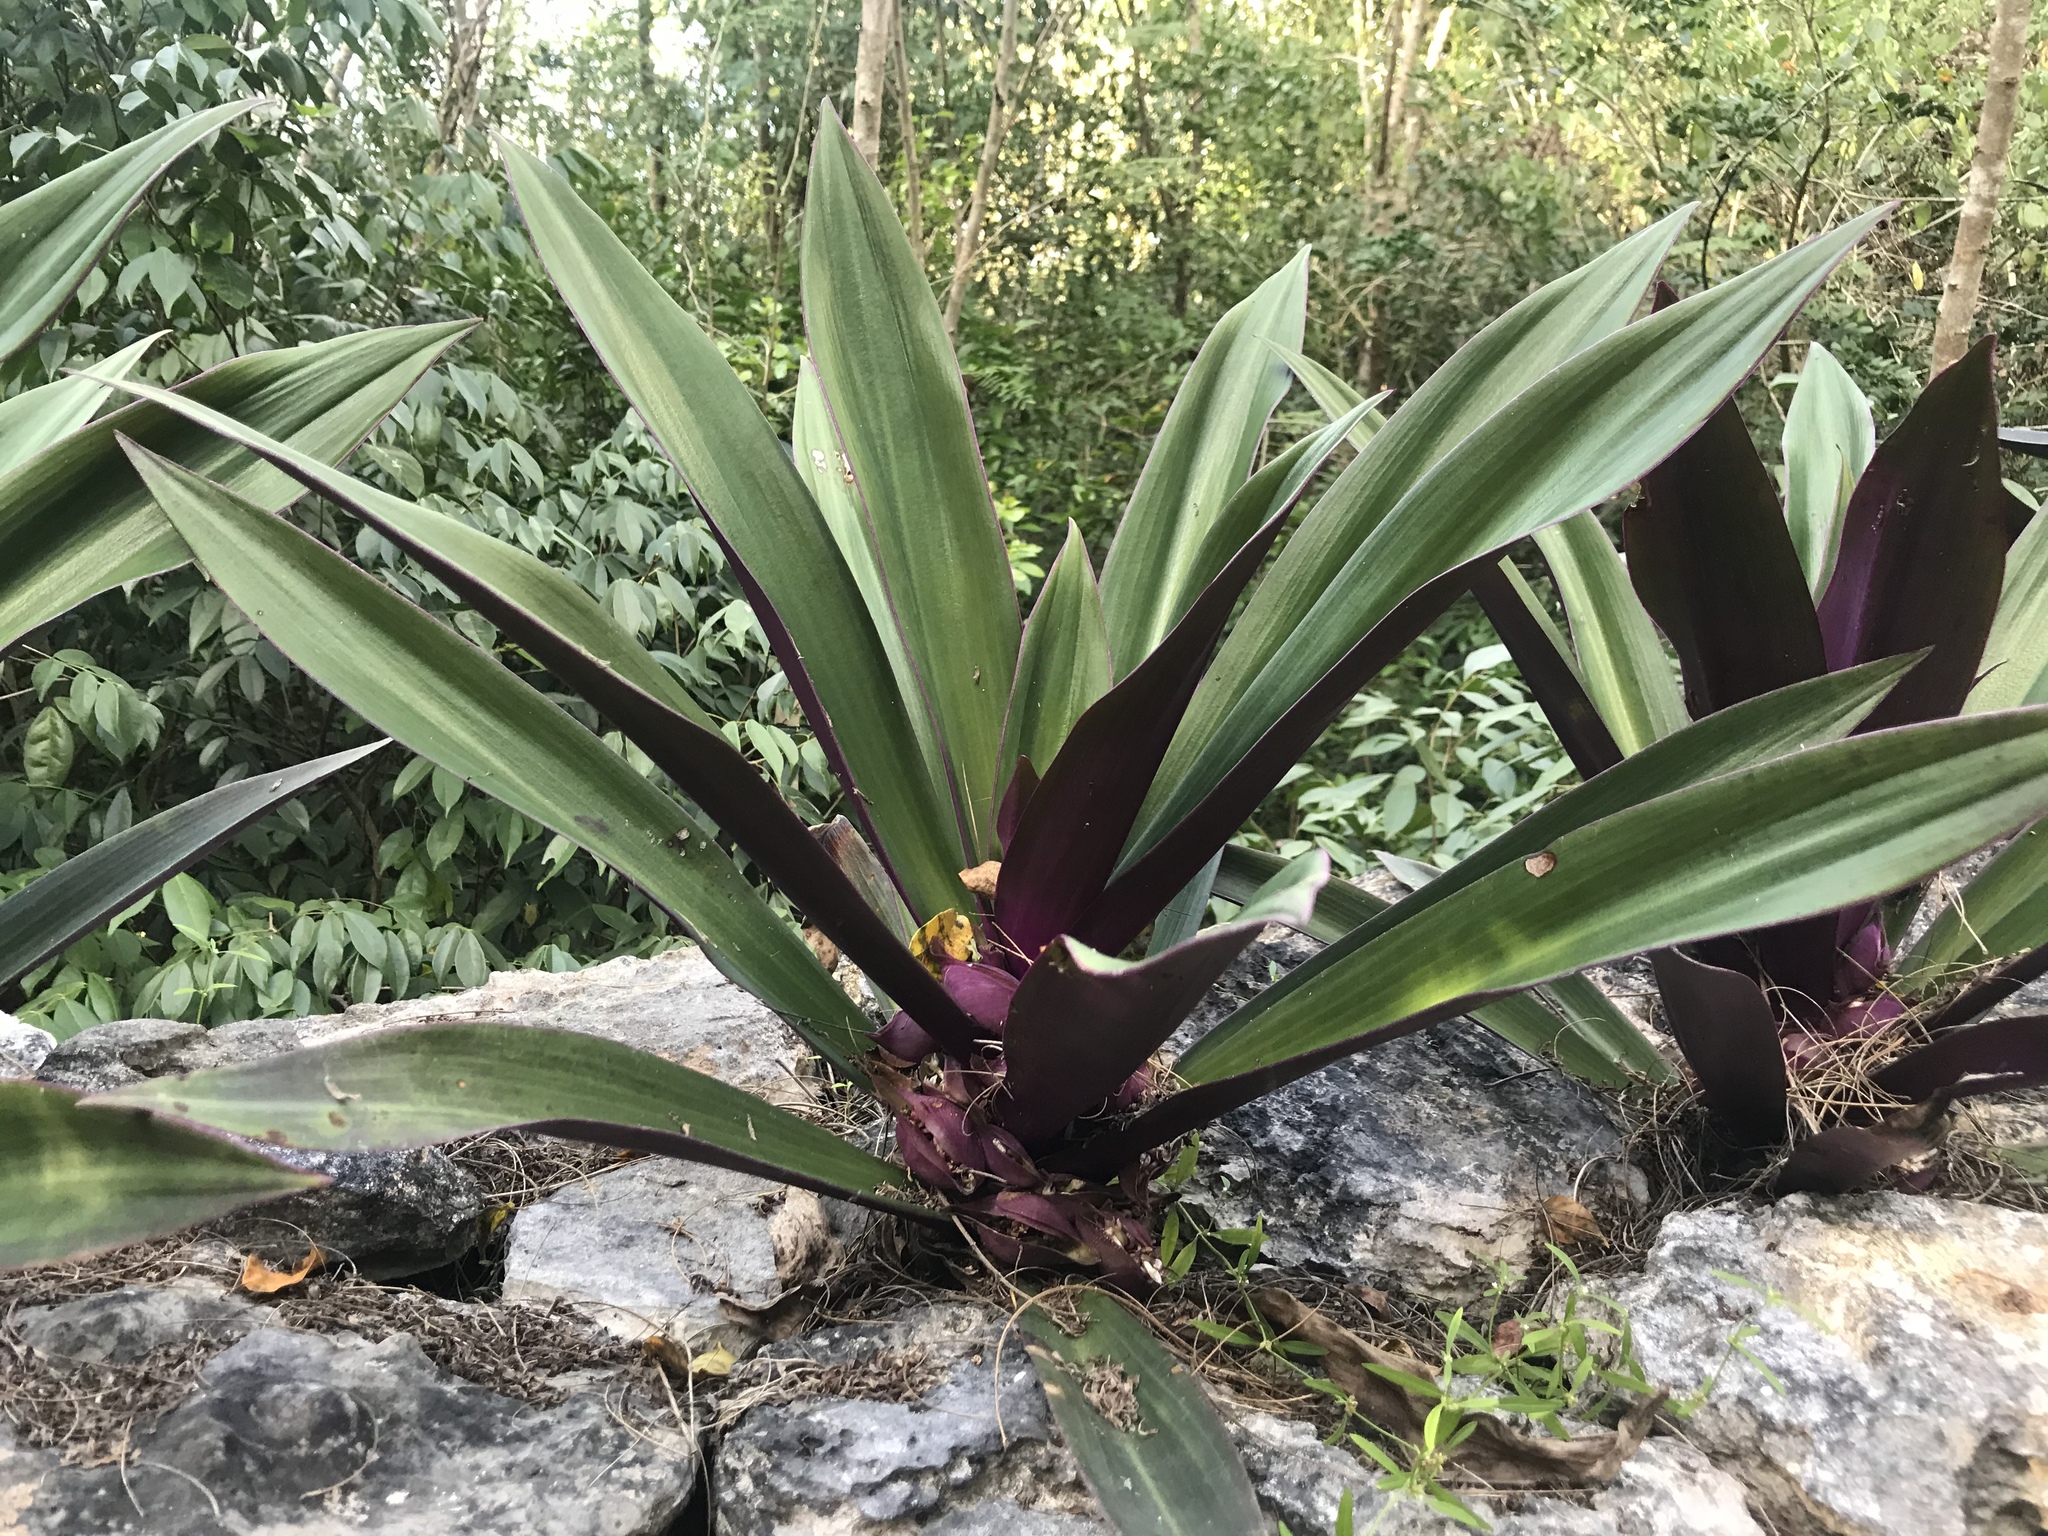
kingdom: Plantae
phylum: Tracheophyta
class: Liliopsida
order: Commelinales
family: Commelinaceae
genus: Tradescantia
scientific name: Tradescantia spathacea
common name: Boatlily
